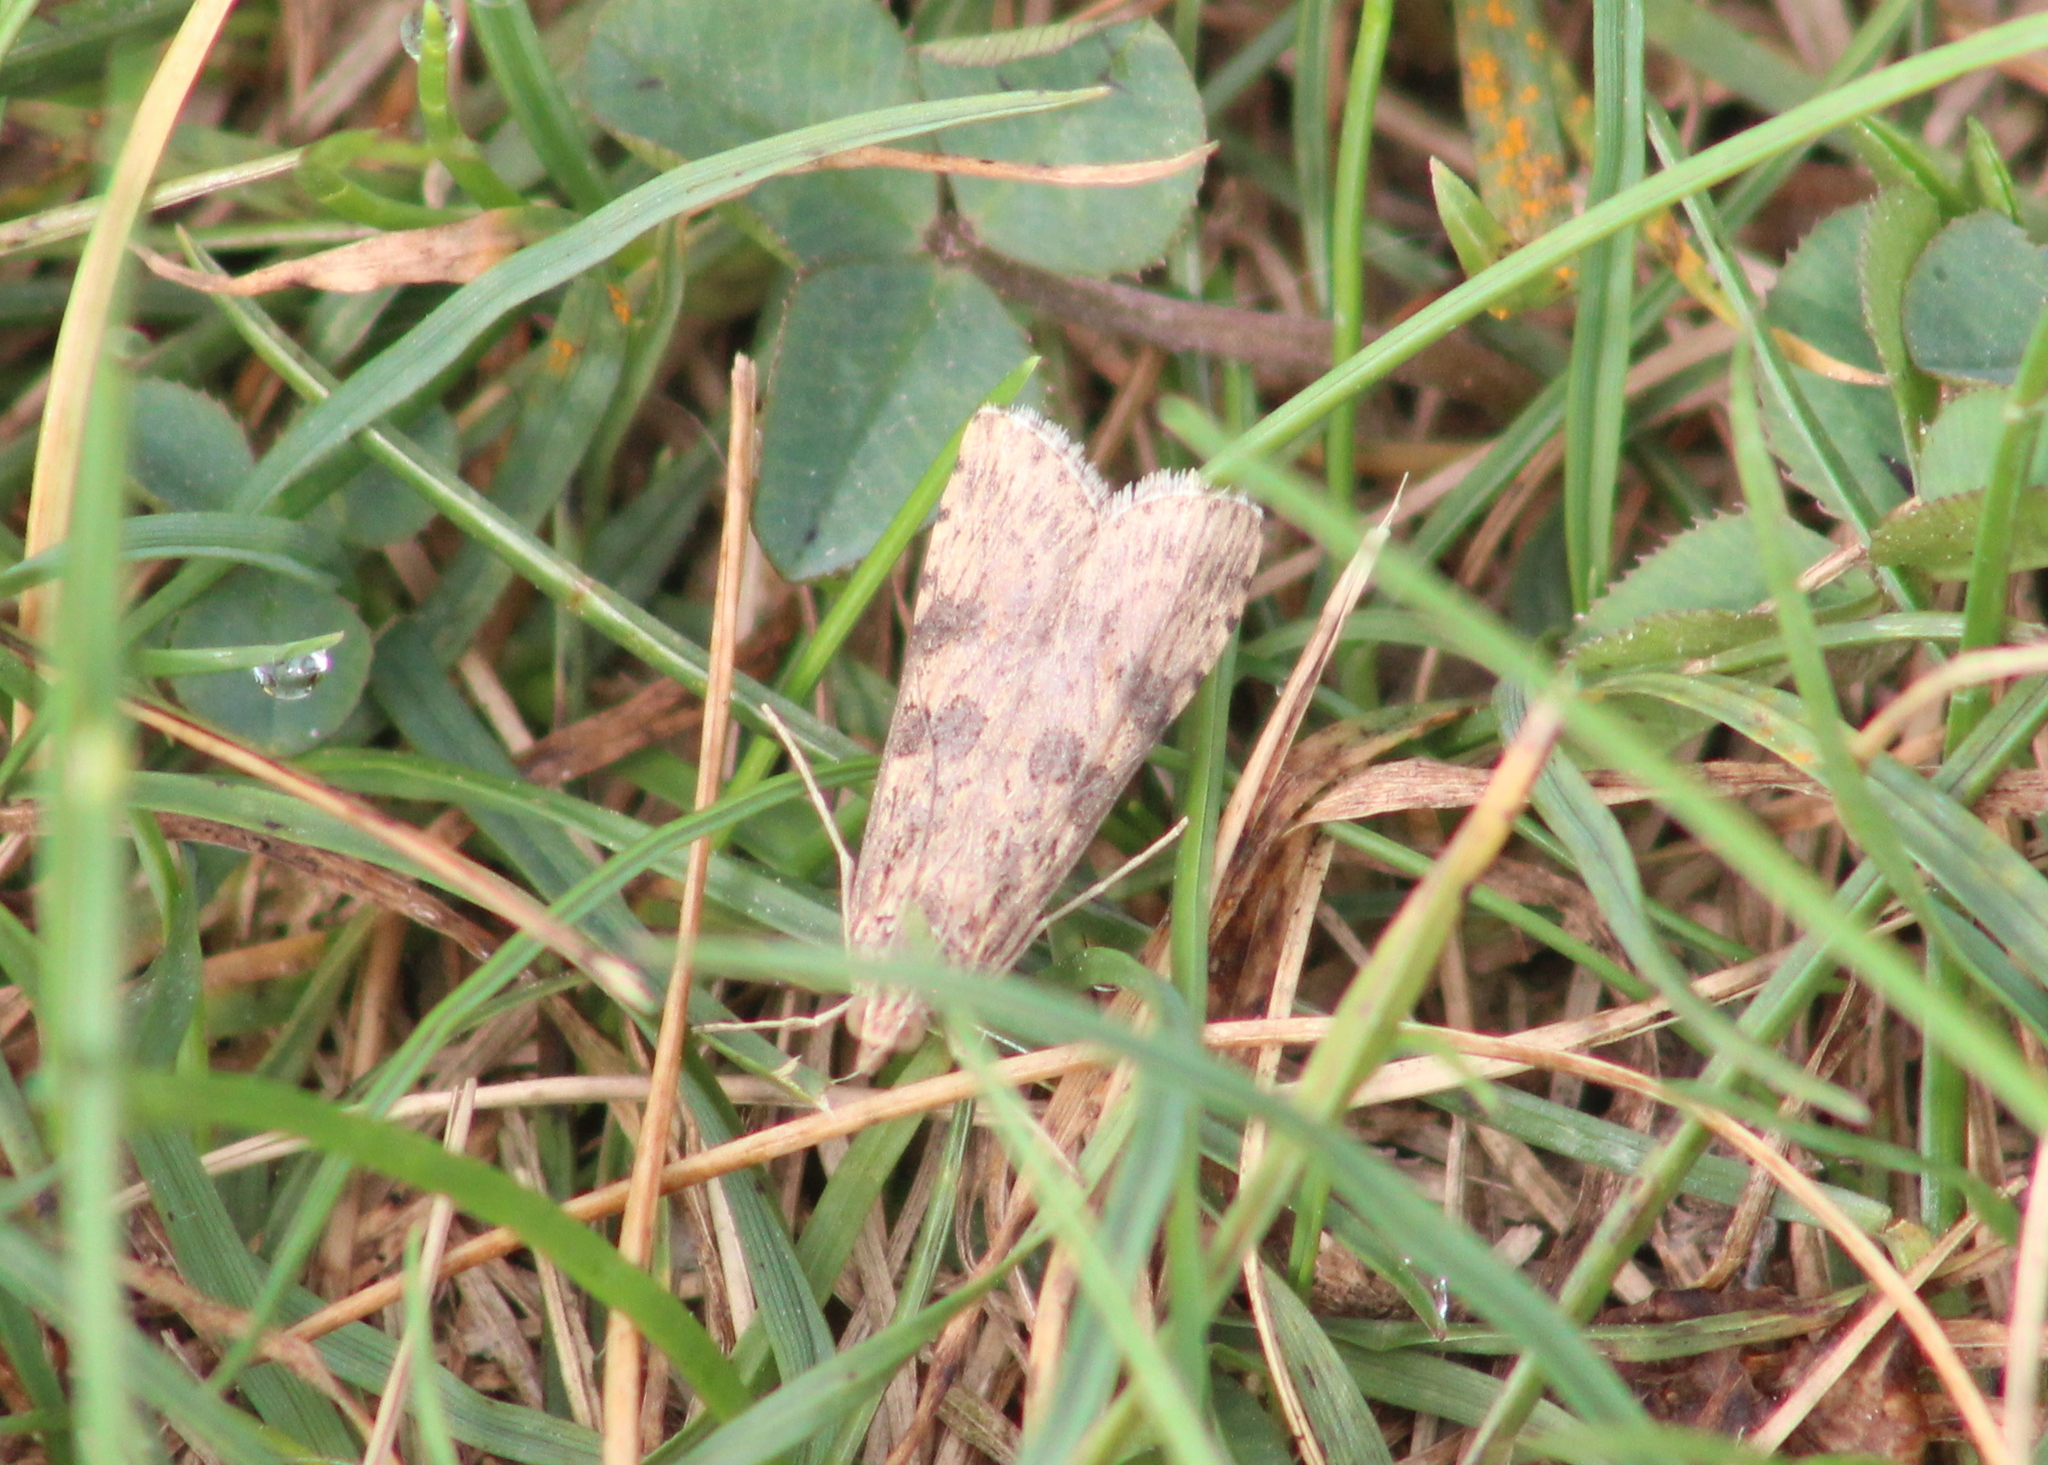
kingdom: Animalia
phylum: Arthropoda
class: Insecta
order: Lepidoptera
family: Crambidae
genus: Nomophila
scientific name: Nomophila nearctica
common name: American rush veneer
